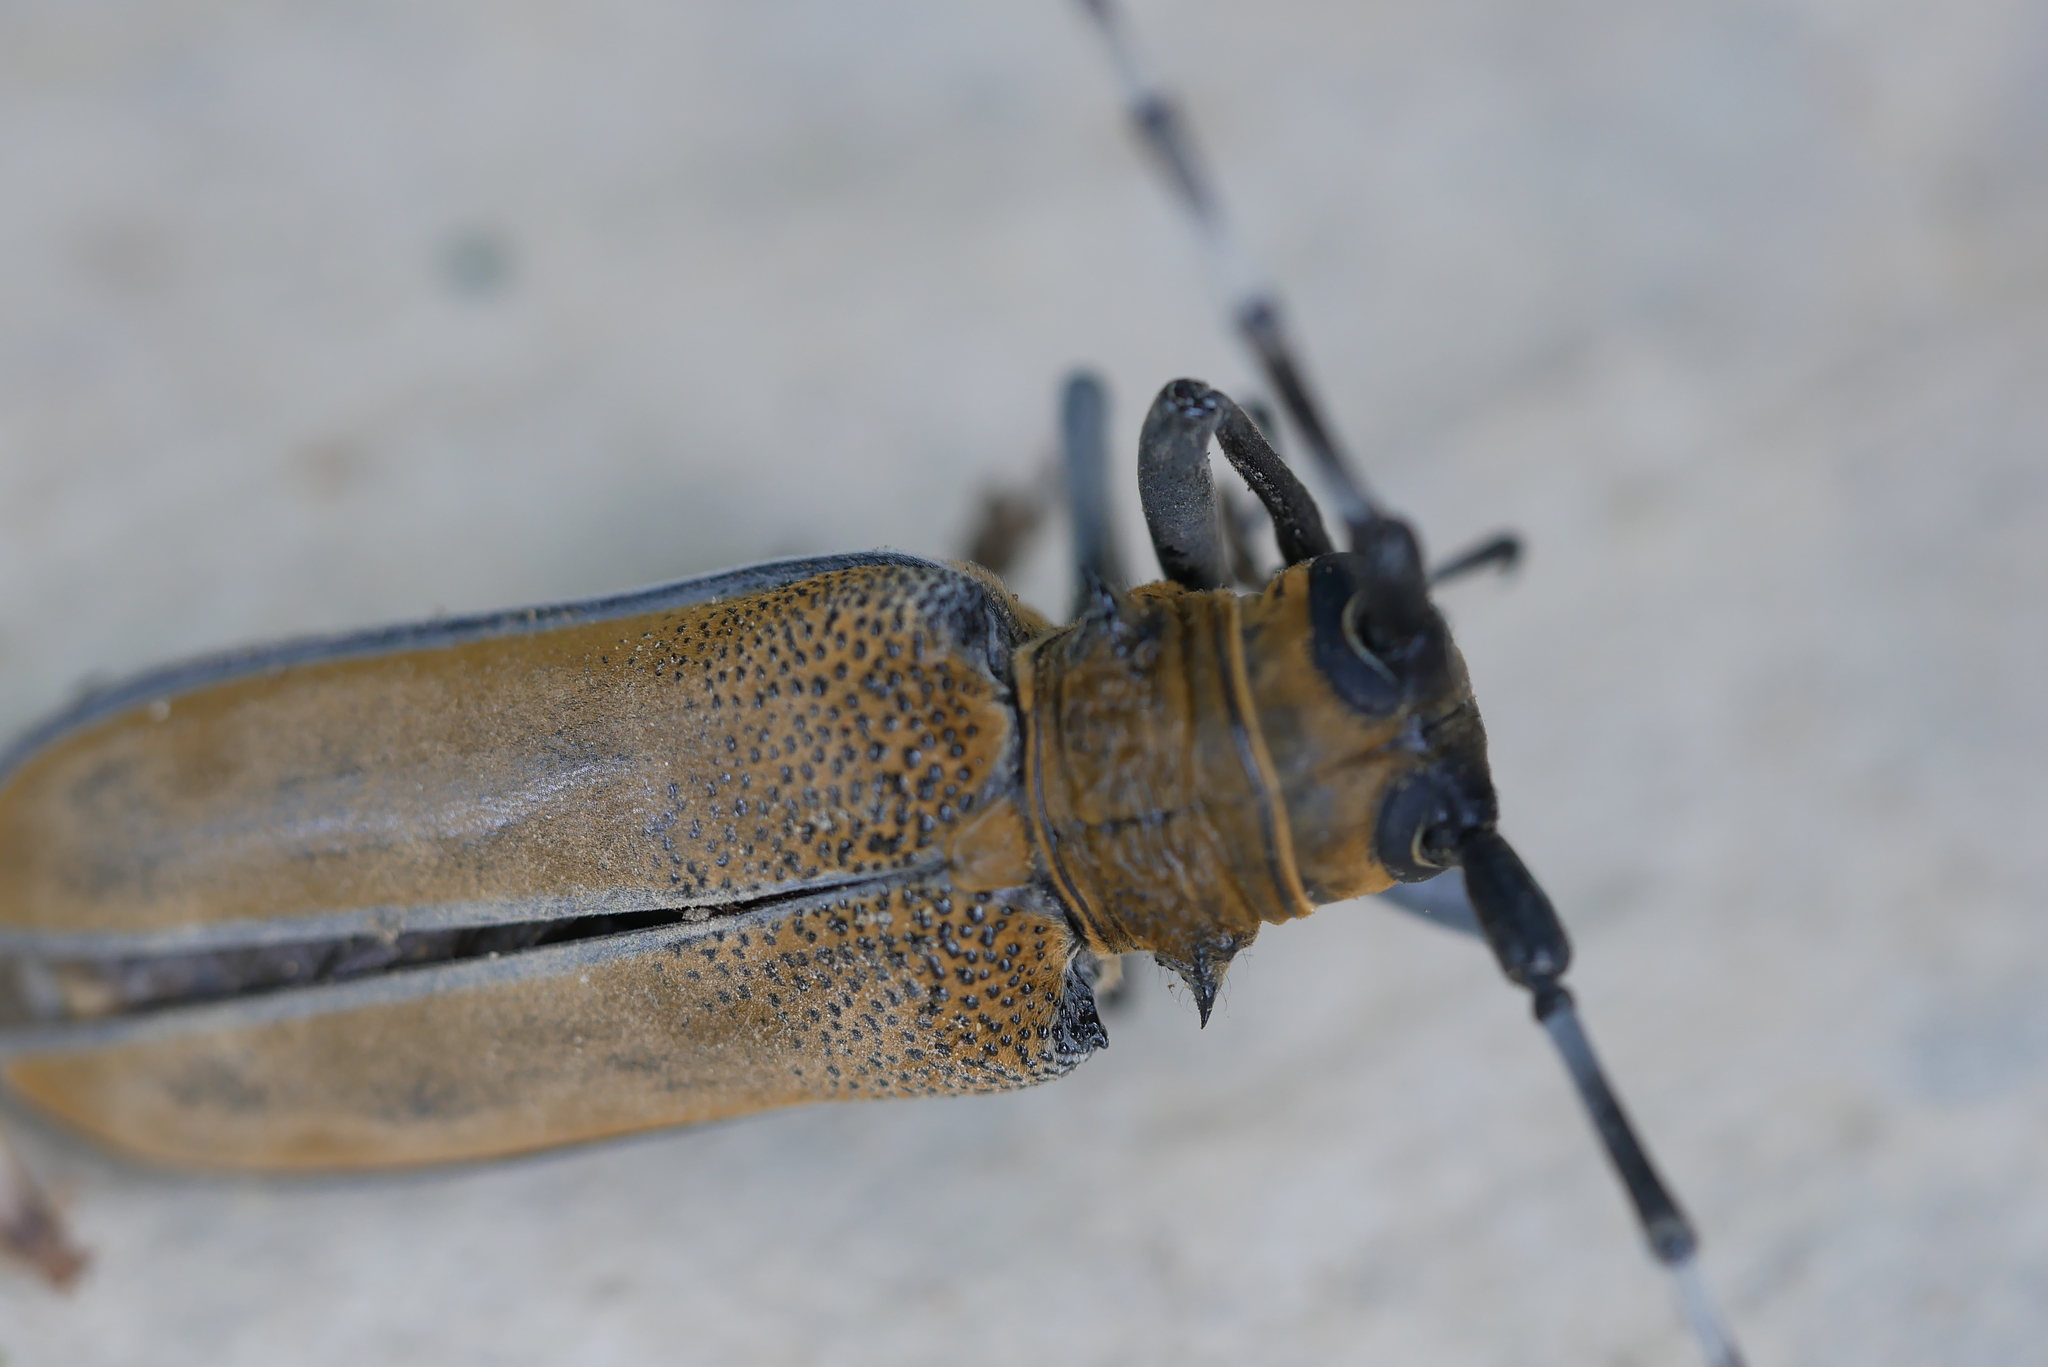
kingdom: Animalia
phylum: Arthropoda
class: Insecta
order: Coleoptera
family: Cerambycidae
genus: Apriona
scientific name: Apriona rugicollis
